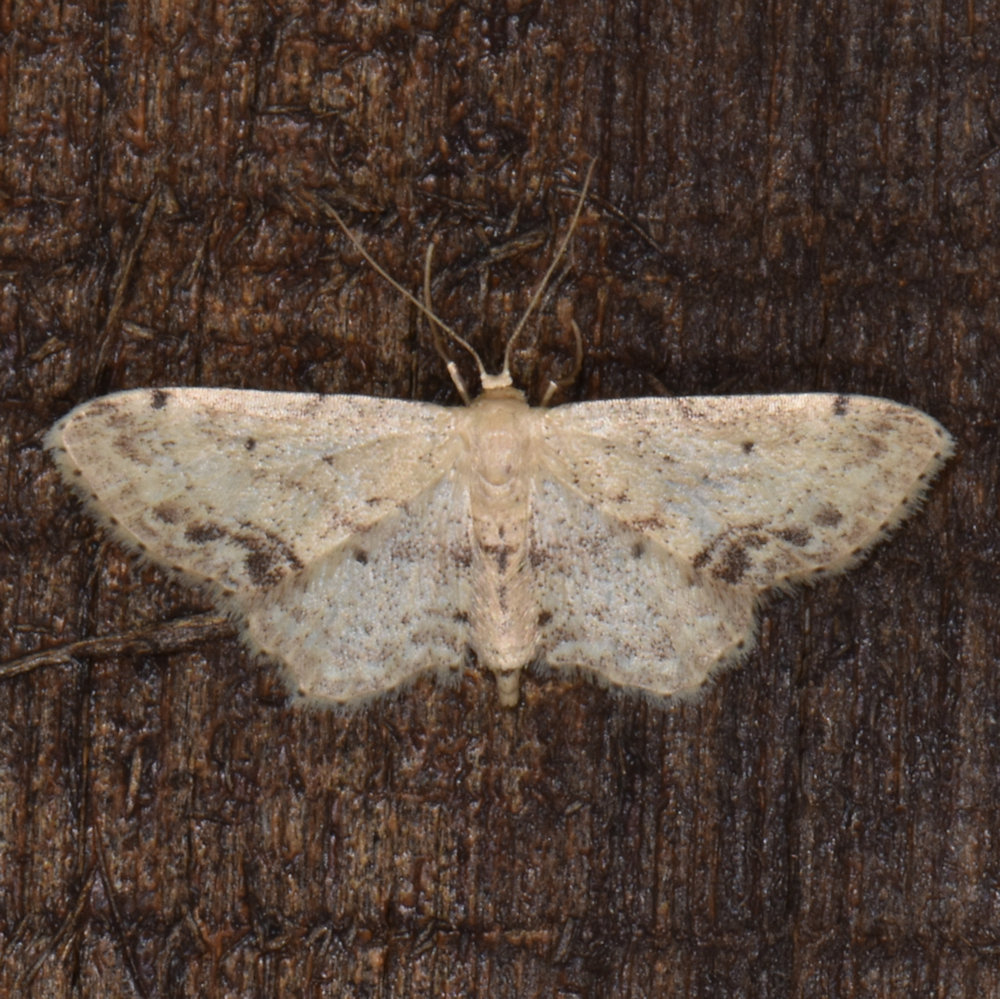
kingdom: Animalia
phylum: Arthropoda
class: Insecta
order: Lepidoptera
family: Geometridae
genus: Idaea
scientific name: Idaea dimidiata
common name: Single-dotted wave
